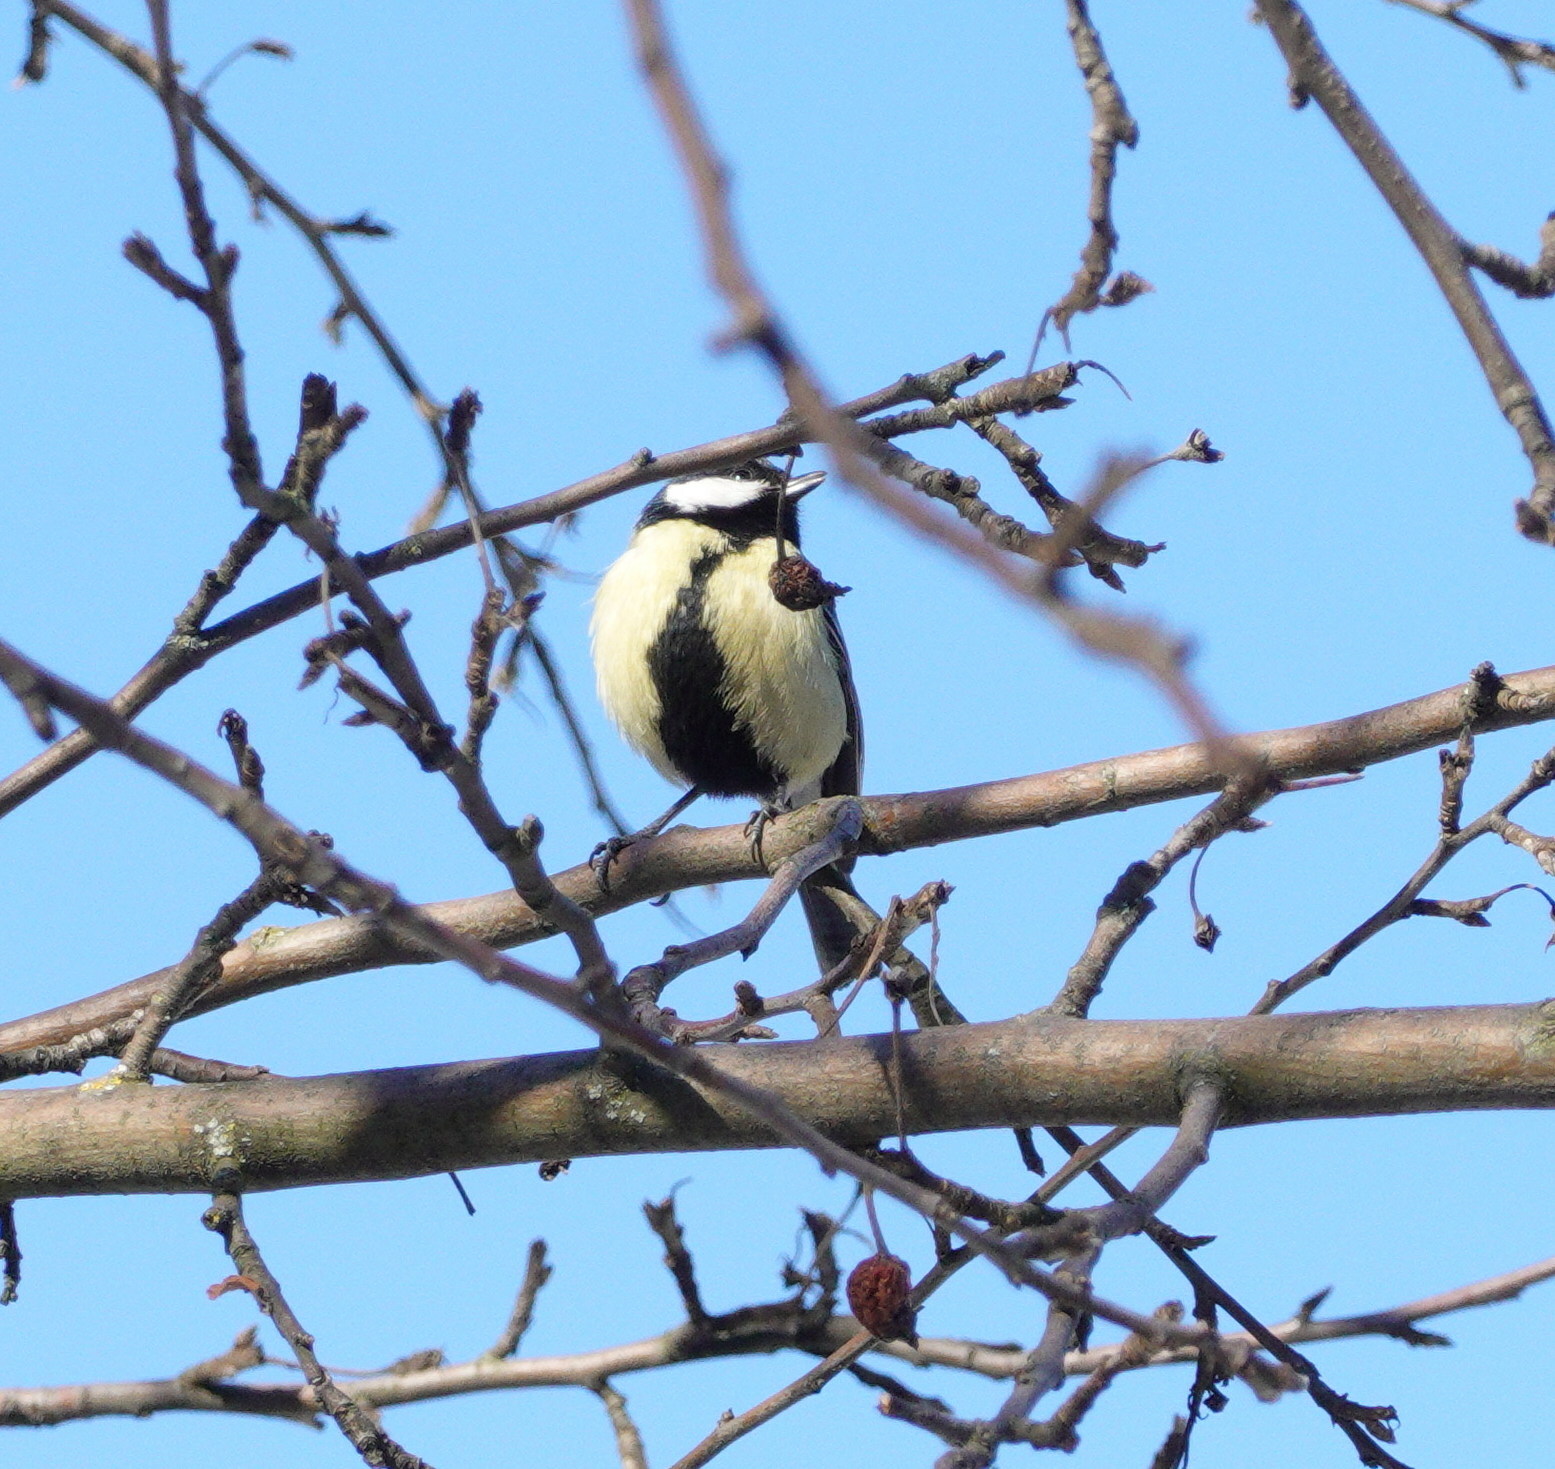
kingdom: Animalia
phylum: Chordata
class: Aves
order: Passeriformes
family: Paridae
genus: Parus
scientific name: Parus major
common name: Great tit
